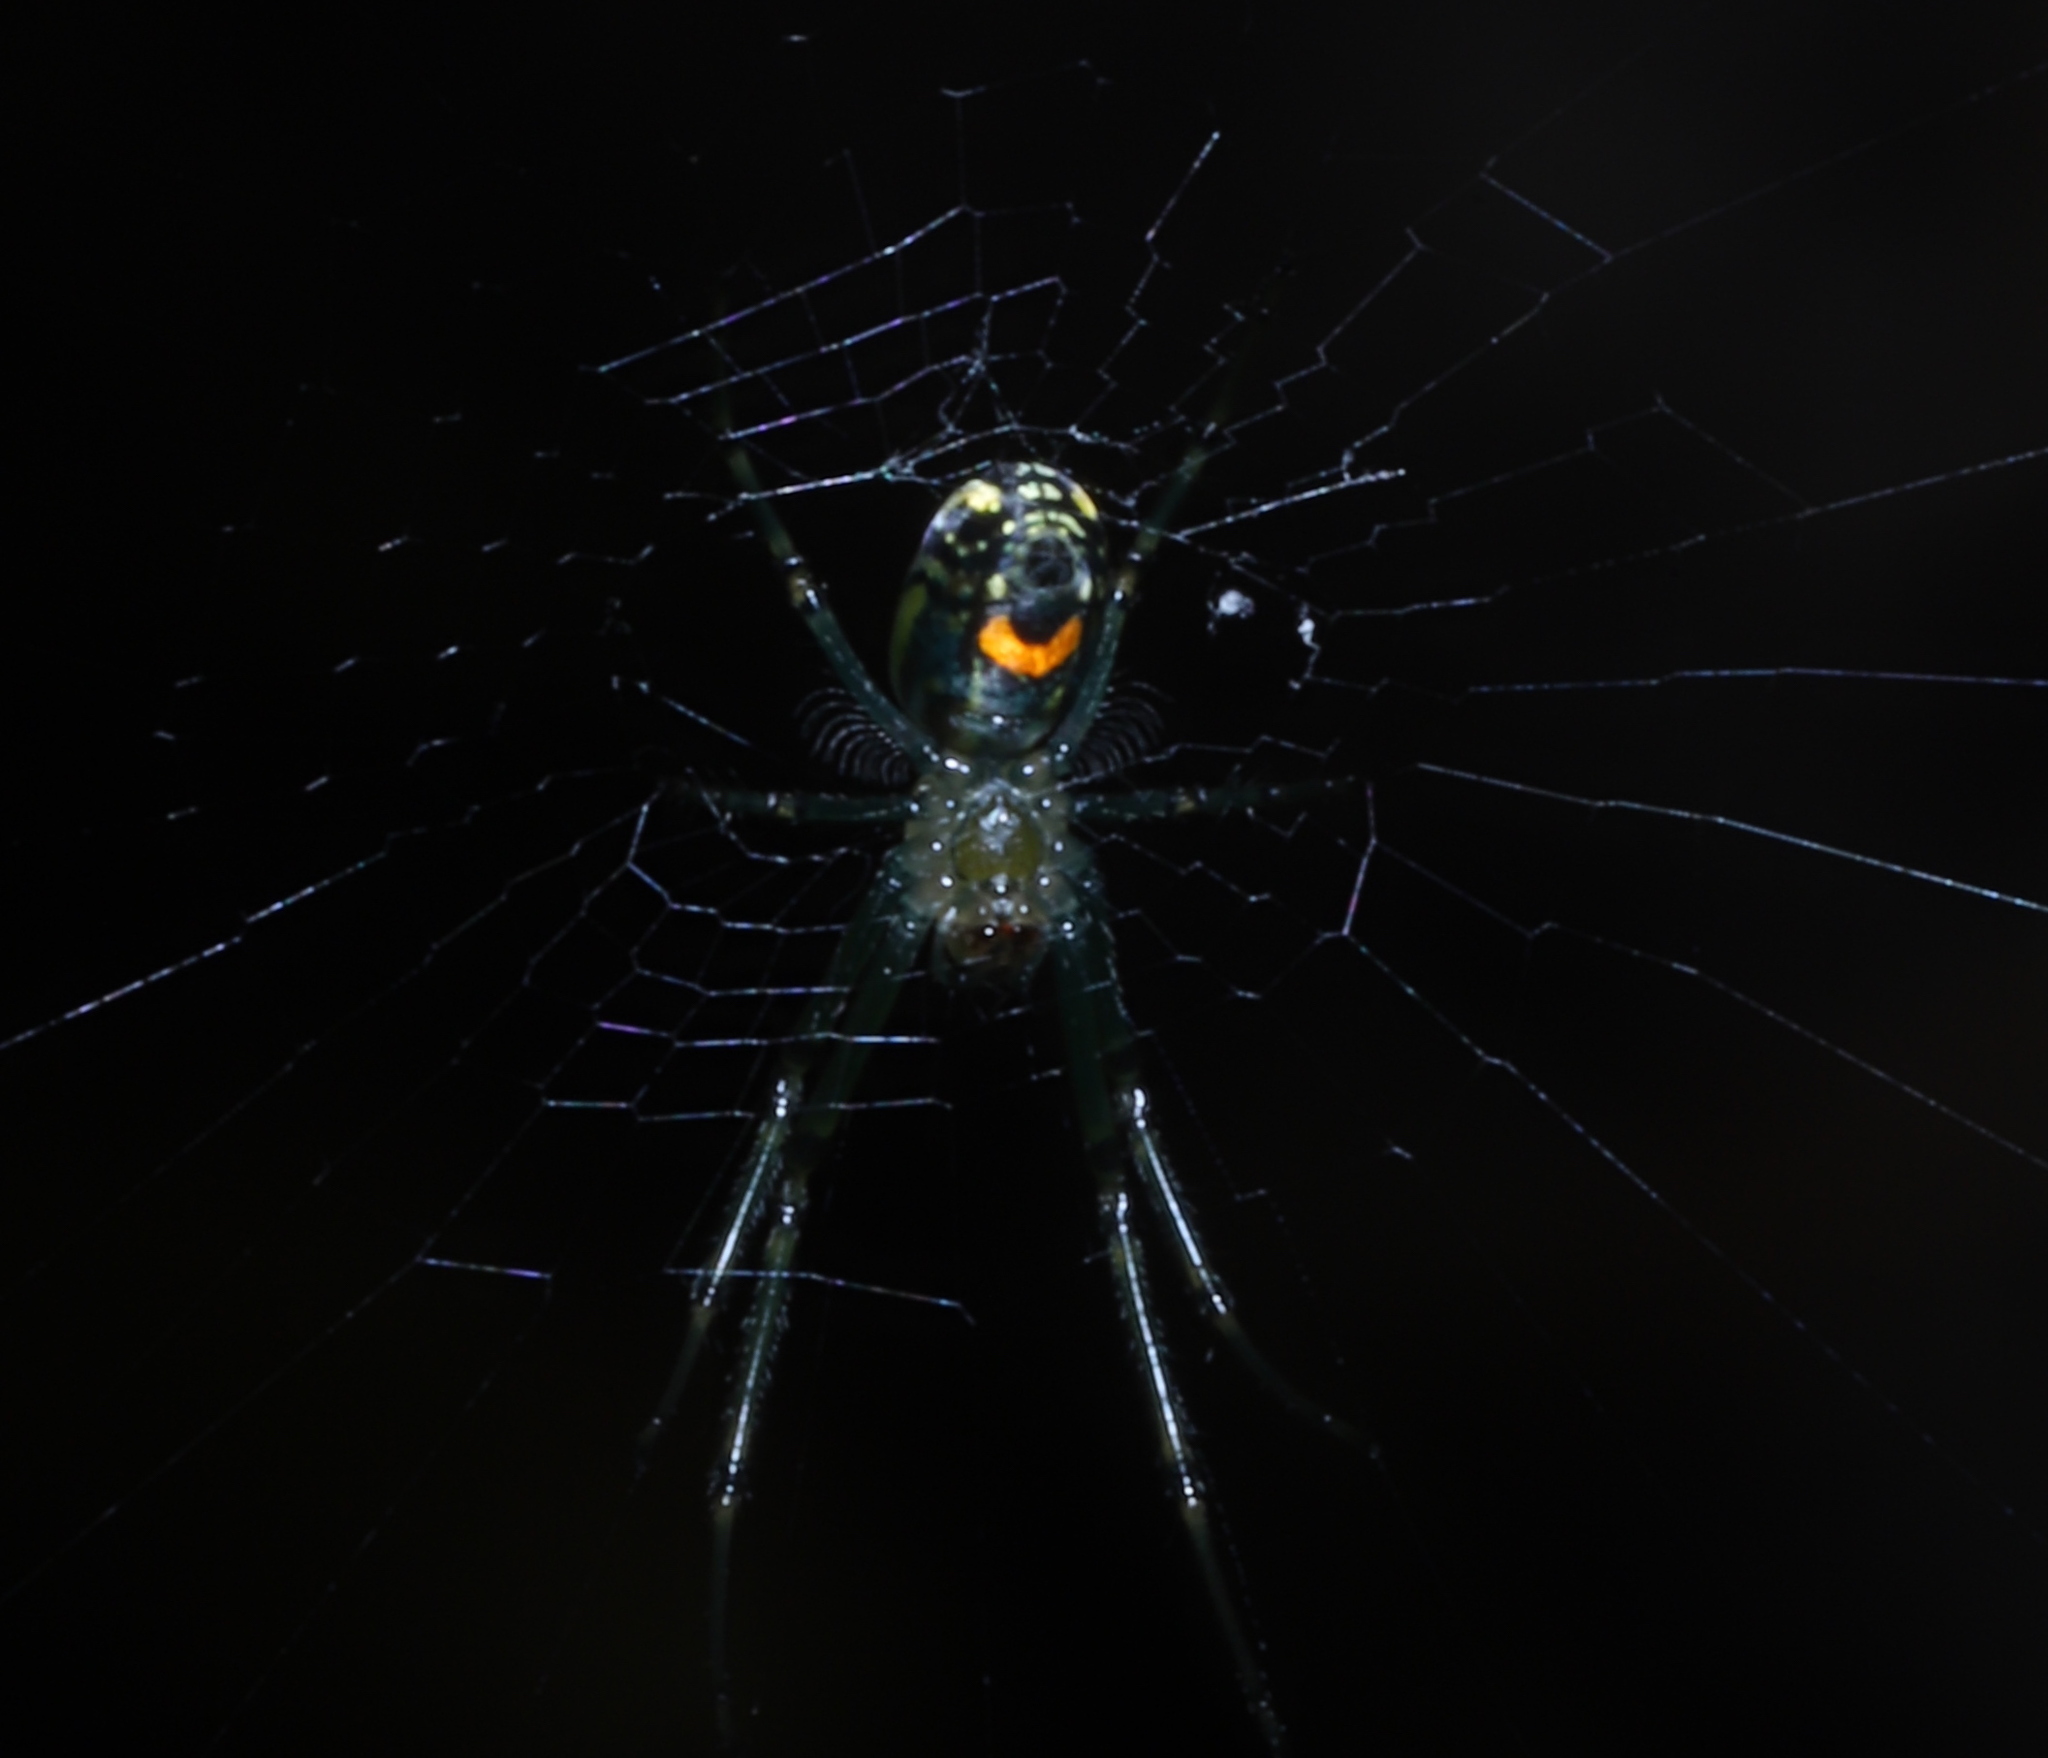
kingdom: Animalia
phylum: Arthropoda
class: Arachnida
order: Araneae
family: Tetragnathidae
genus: Leucauge
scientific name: Leucauge venusta
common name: Longjawed orb weavers
